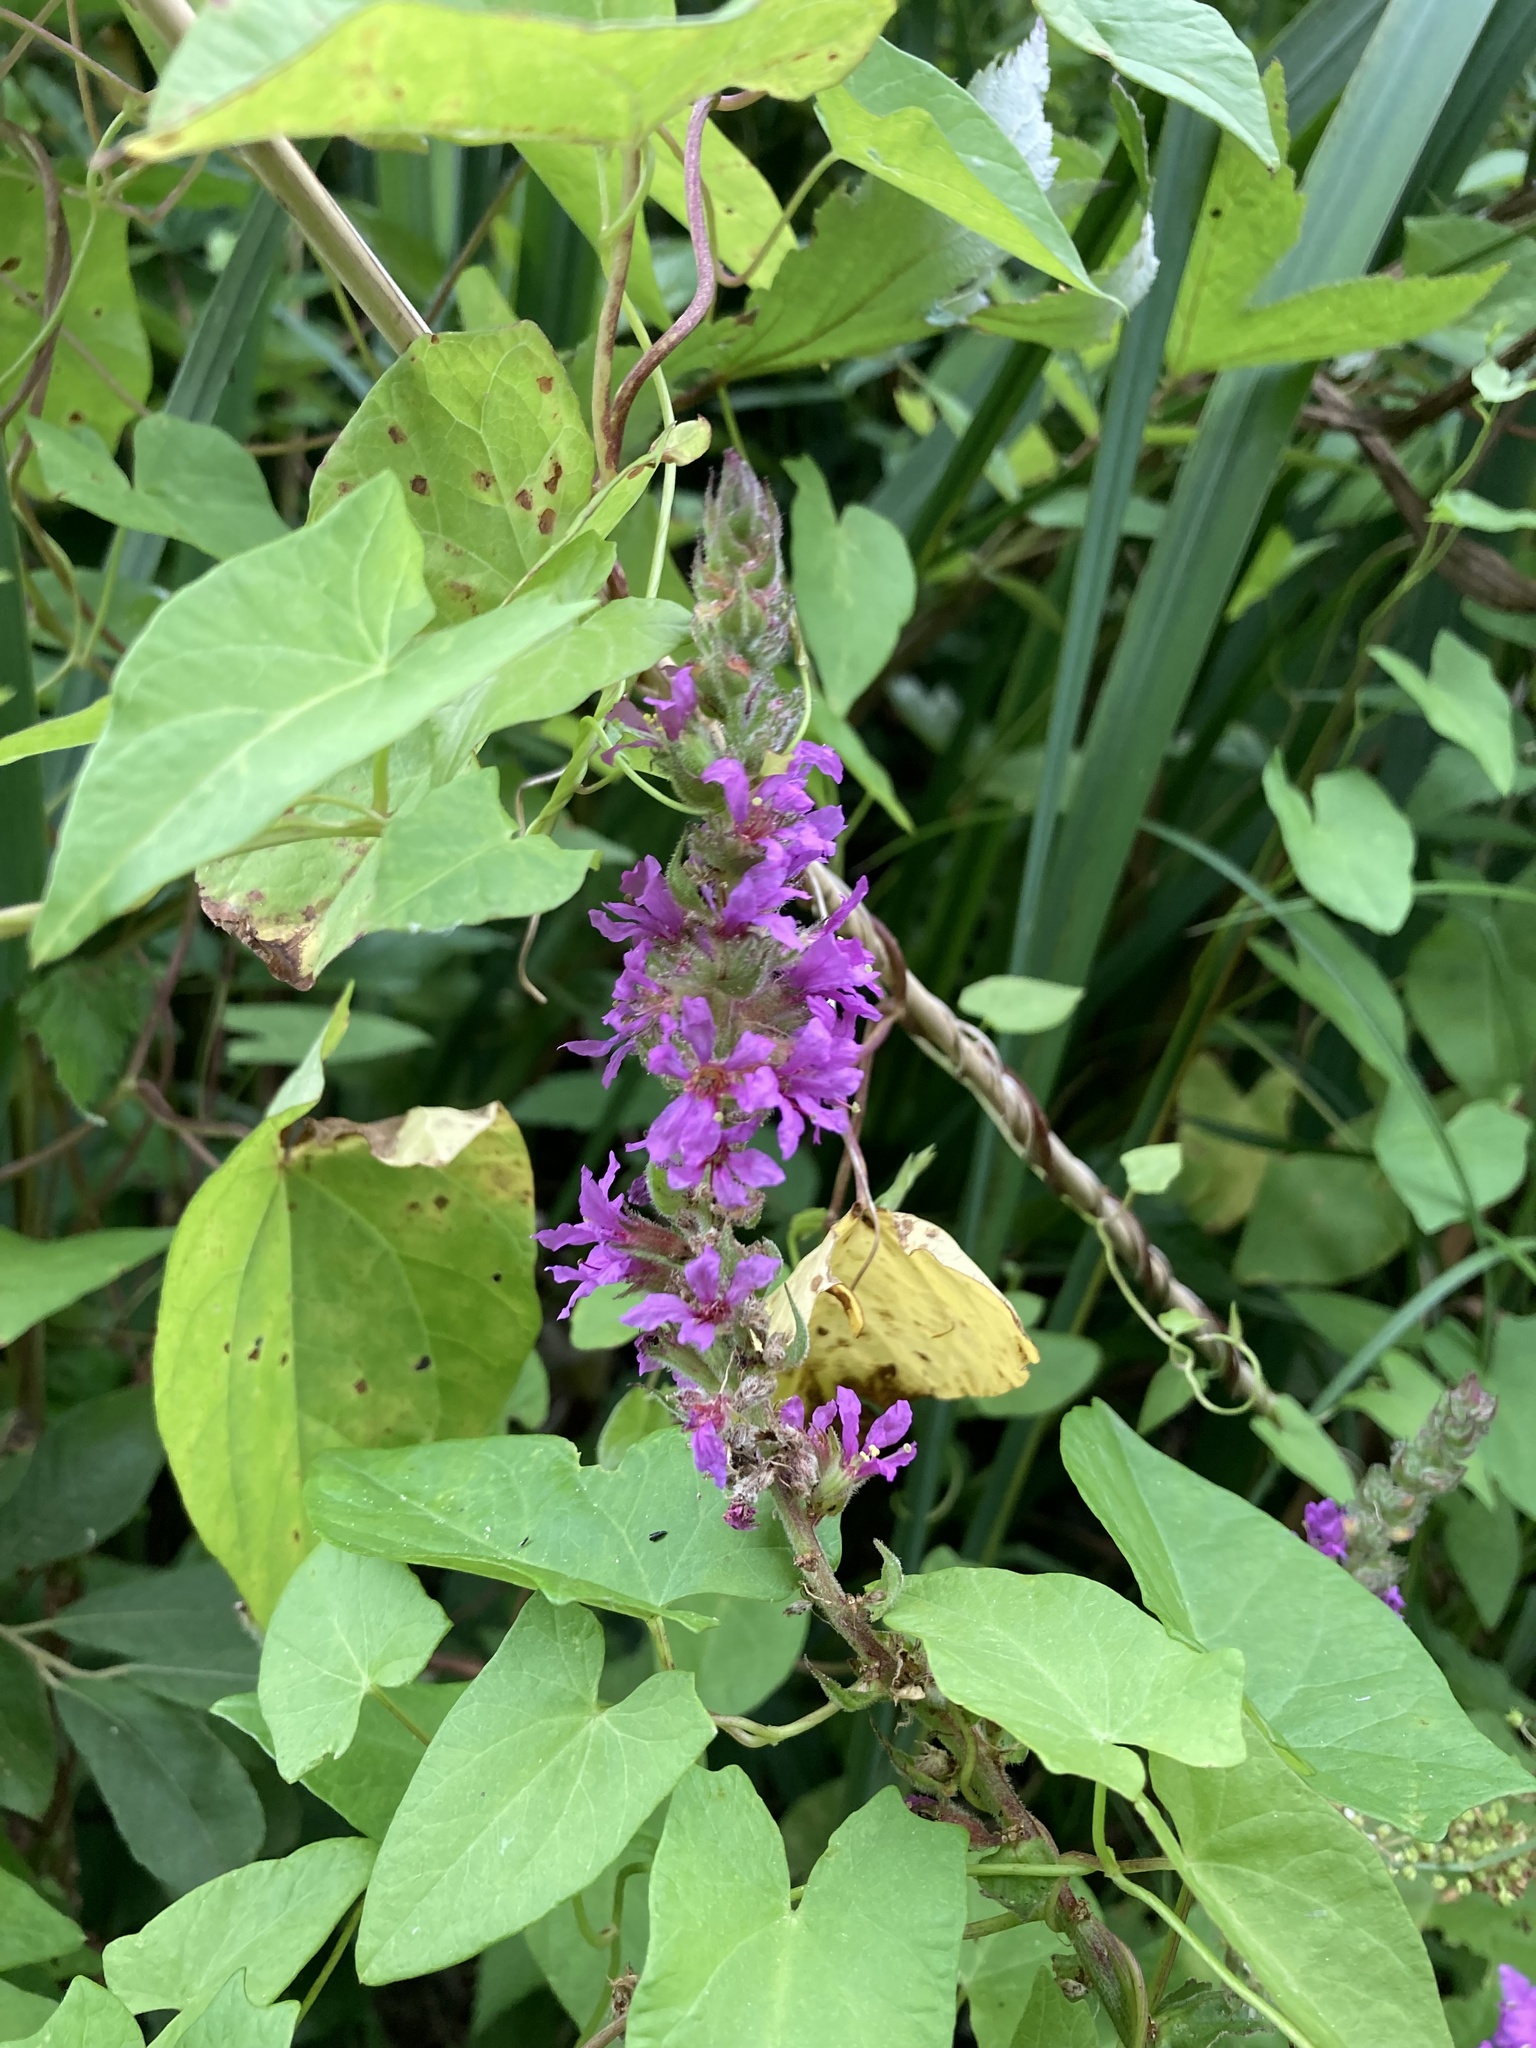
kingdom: Plantae
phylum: Tracheophyta
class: Magnoliopsida
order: Myrtales
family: Lythraceae
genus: Lythrum
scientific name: Lythrum salicaria
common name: Purple loosestrife
